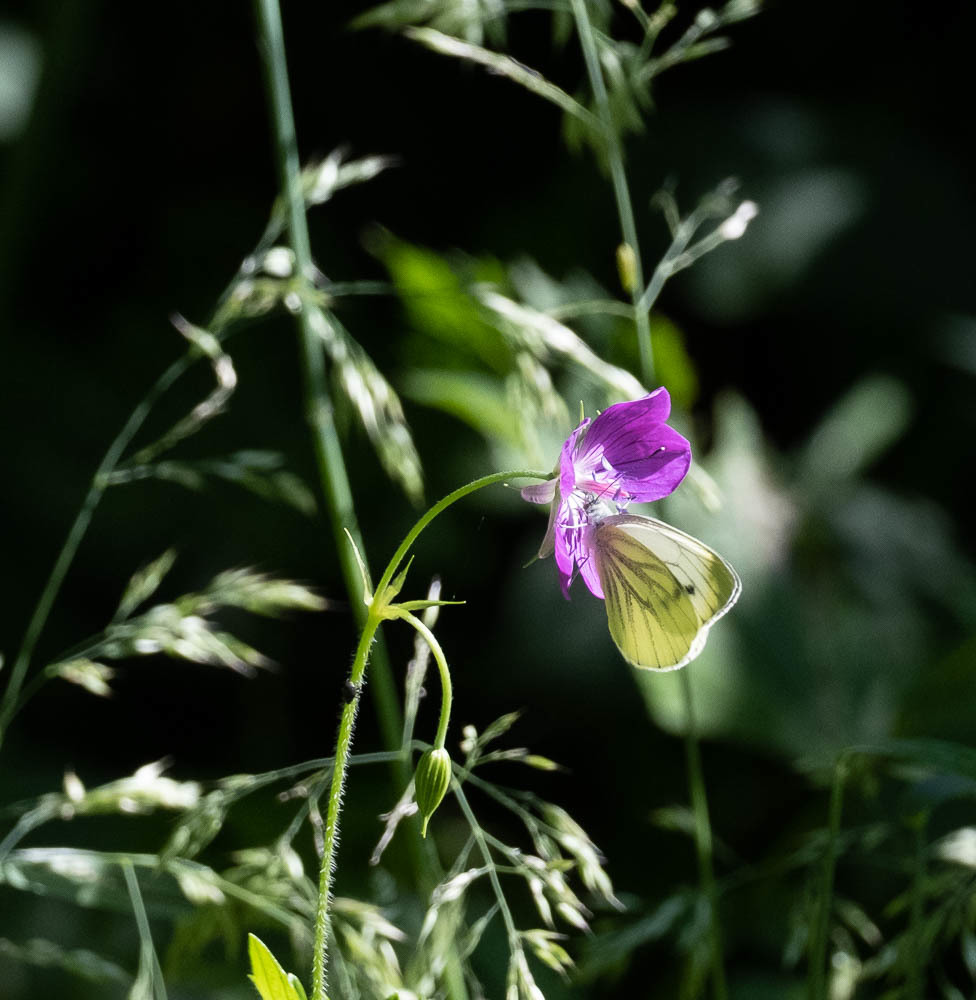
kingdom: Animalia
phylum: Arthropoda
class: Insecta
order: Lepidoptera
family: Pieridae
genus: Pieris
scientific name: Pieris napi
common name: Green-veined white
